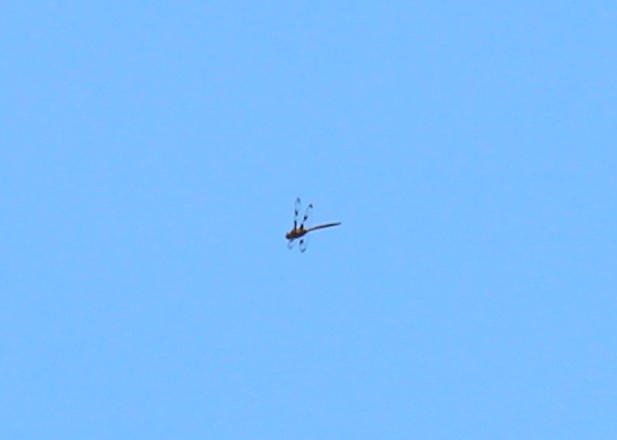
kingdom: Animalia
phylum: Arthropoda
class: Insecta
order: Odonata
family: Corduliidae
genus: Epitheca
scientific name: Epitheca princeps
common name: Prince baskettail
